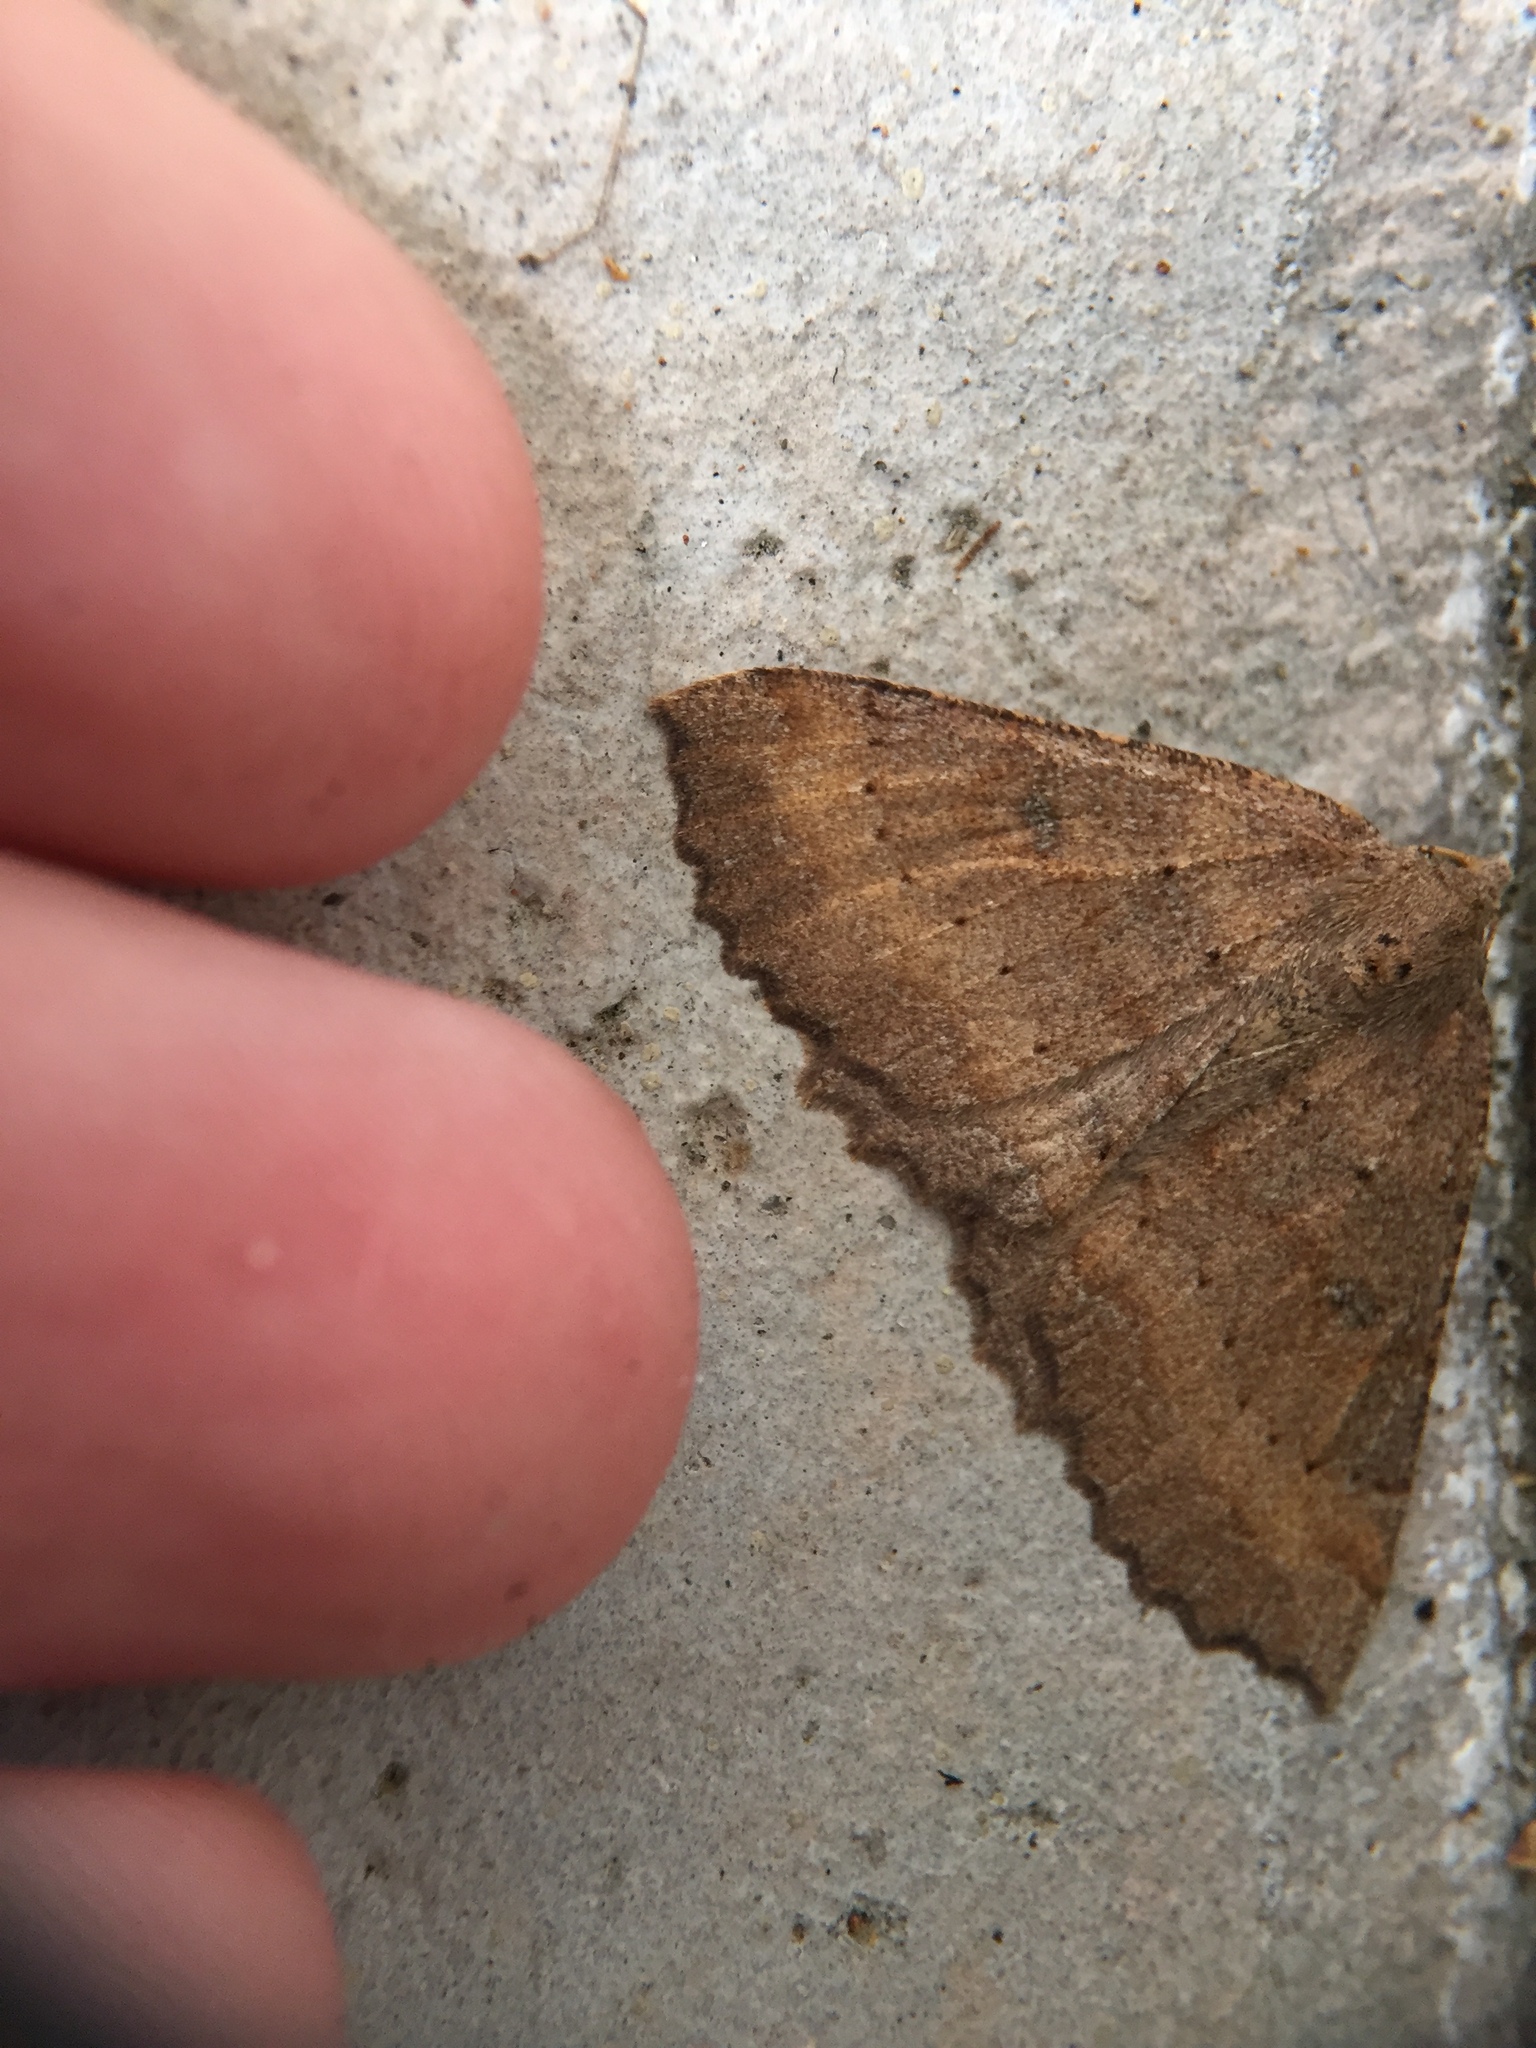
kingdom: Animalia
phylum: Arthropoda
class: Insecta
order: Lepidoptera
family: Geometridae
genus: Cleora
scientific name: Cleora scriptaria
